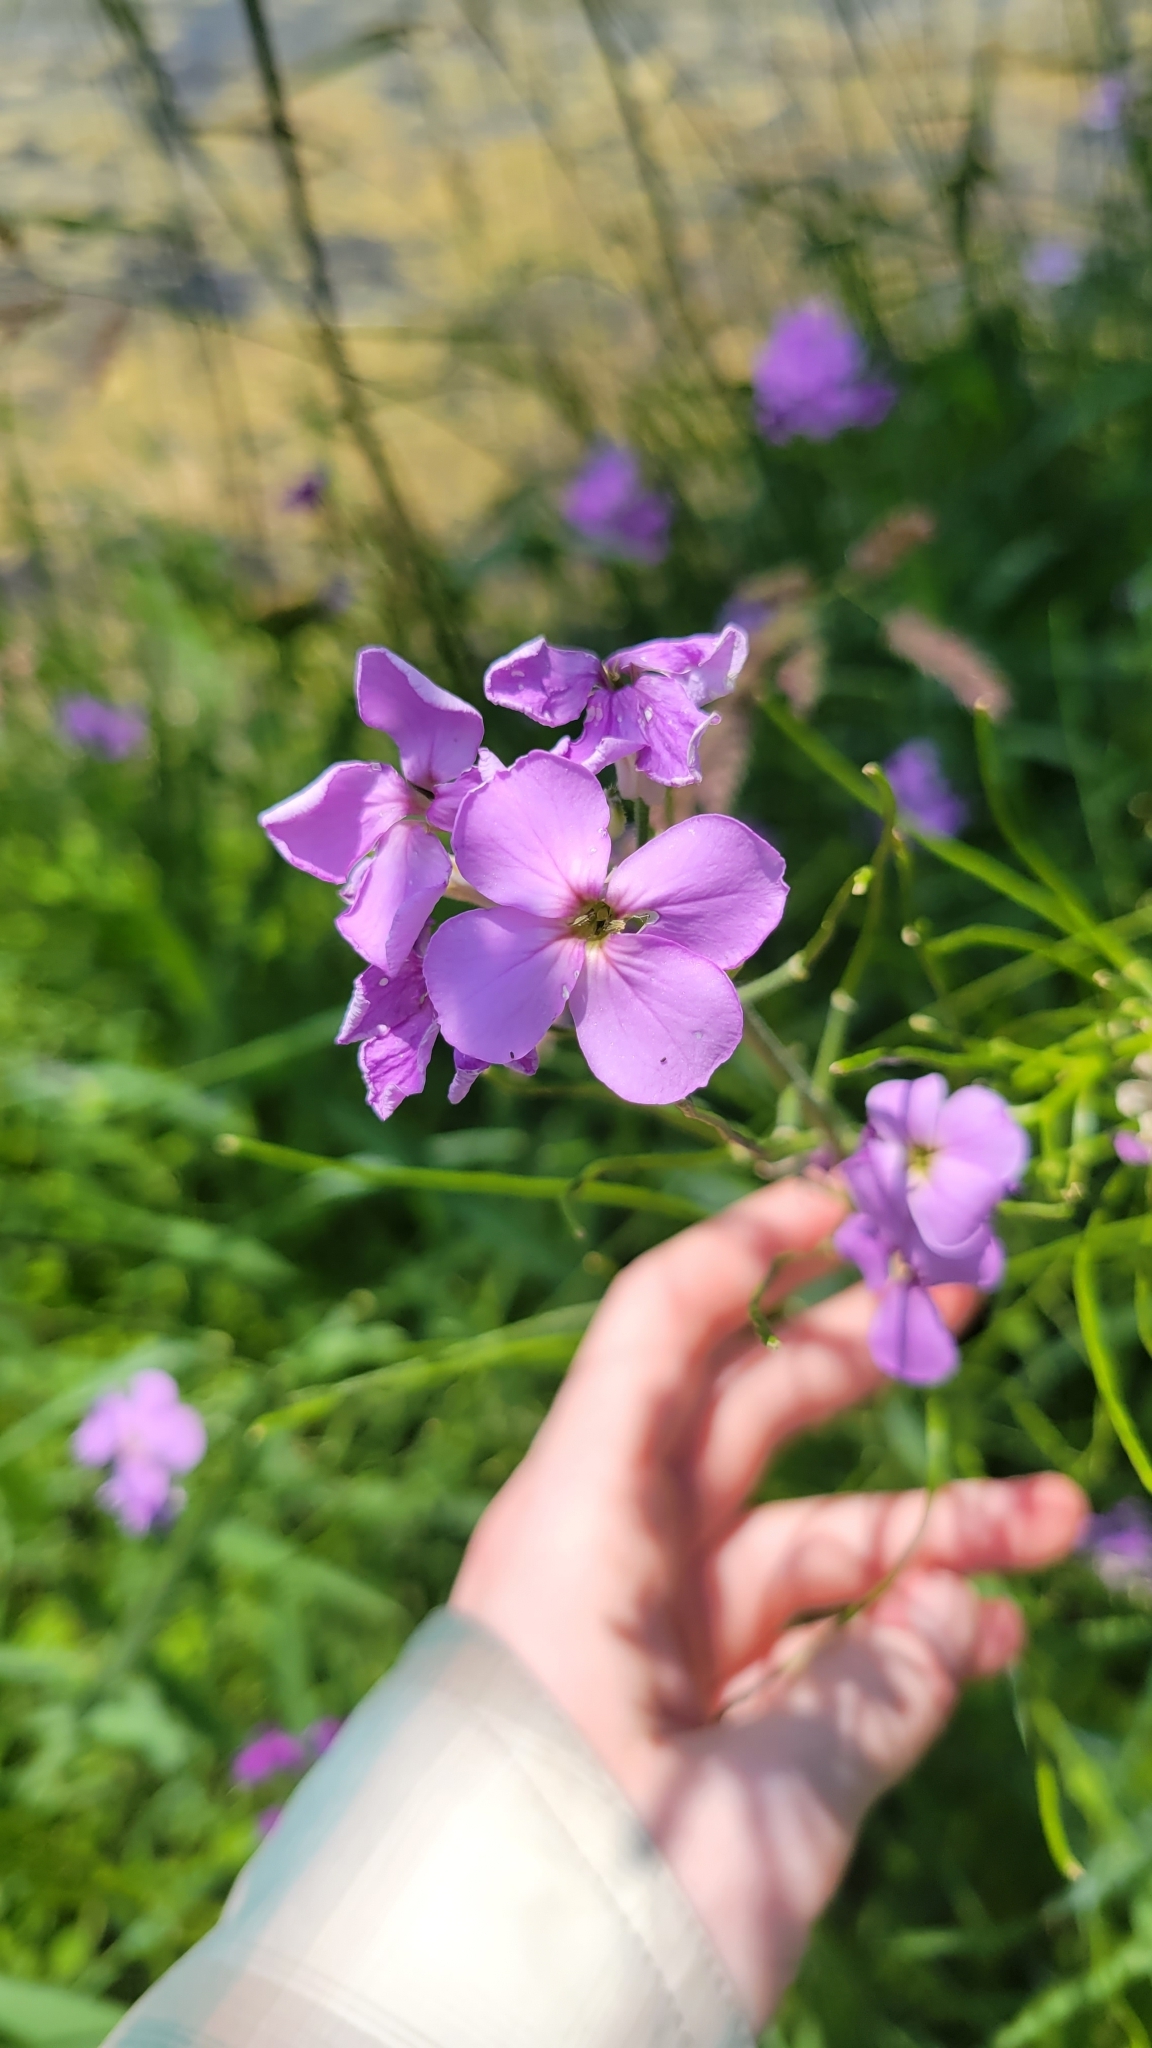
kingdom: Plantae
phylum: Tracheophyta
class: Magnoliopsida
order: Brassicales
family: Brassicaceae
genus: Hesperis
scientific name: Hesperis matronalis
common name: Dame's-violet
